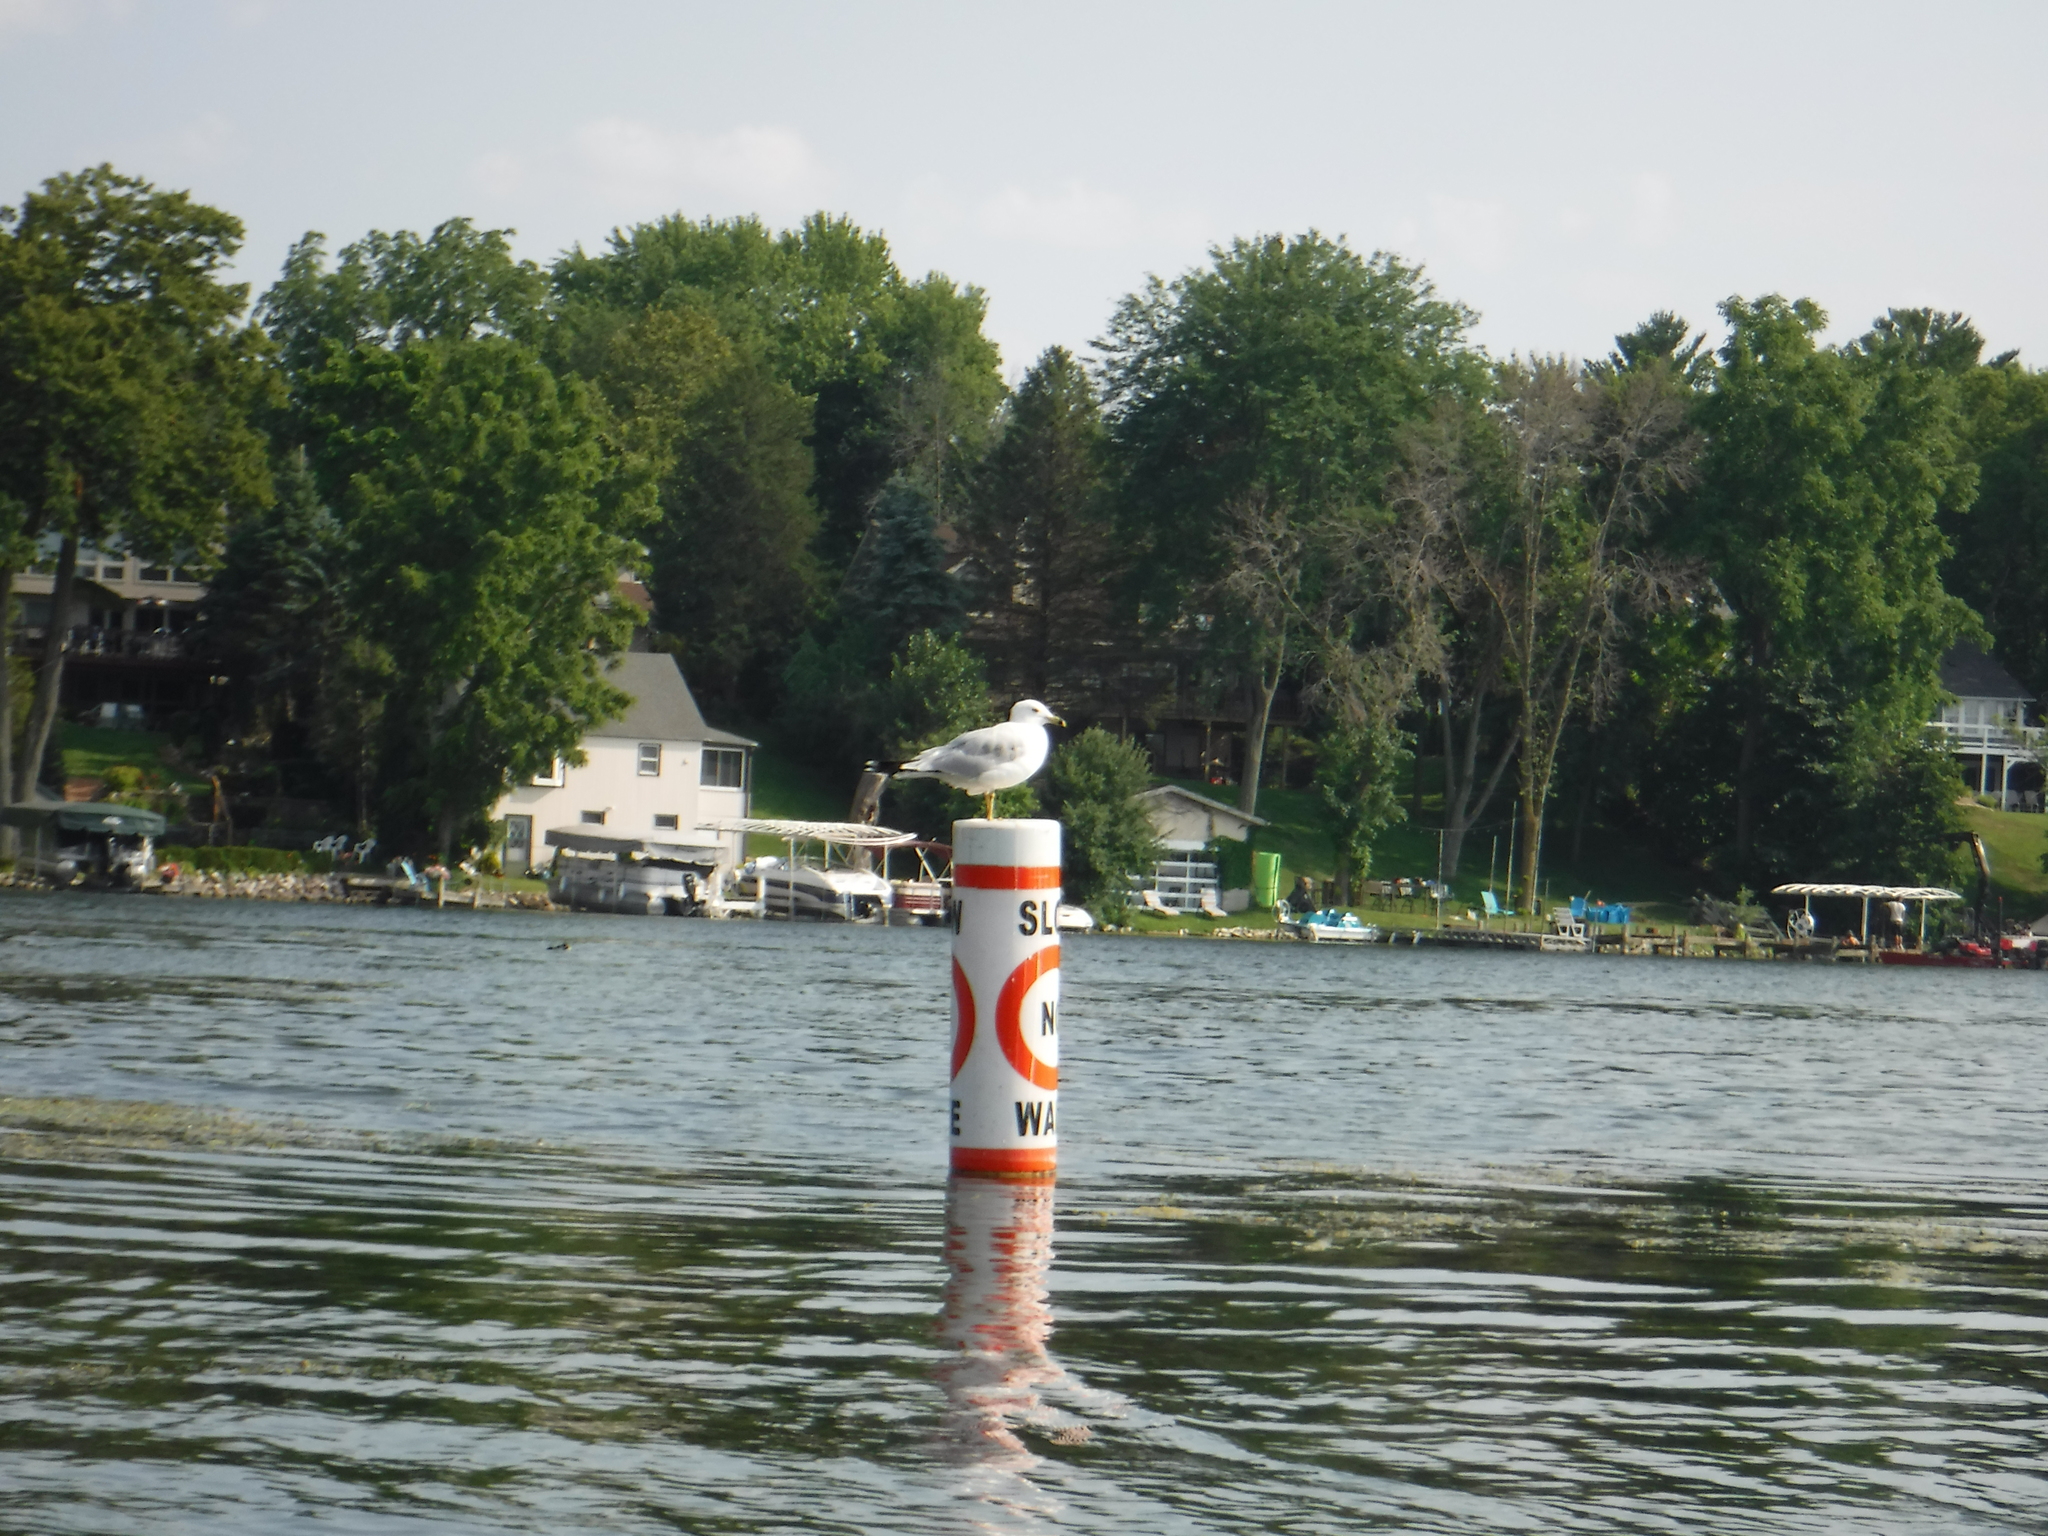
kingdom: Animalia
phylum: Chordata
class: Aves
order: Charadriiformes
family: Laridae
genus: Larus
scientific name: Larus delawarensis
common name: Ring-billed gull
